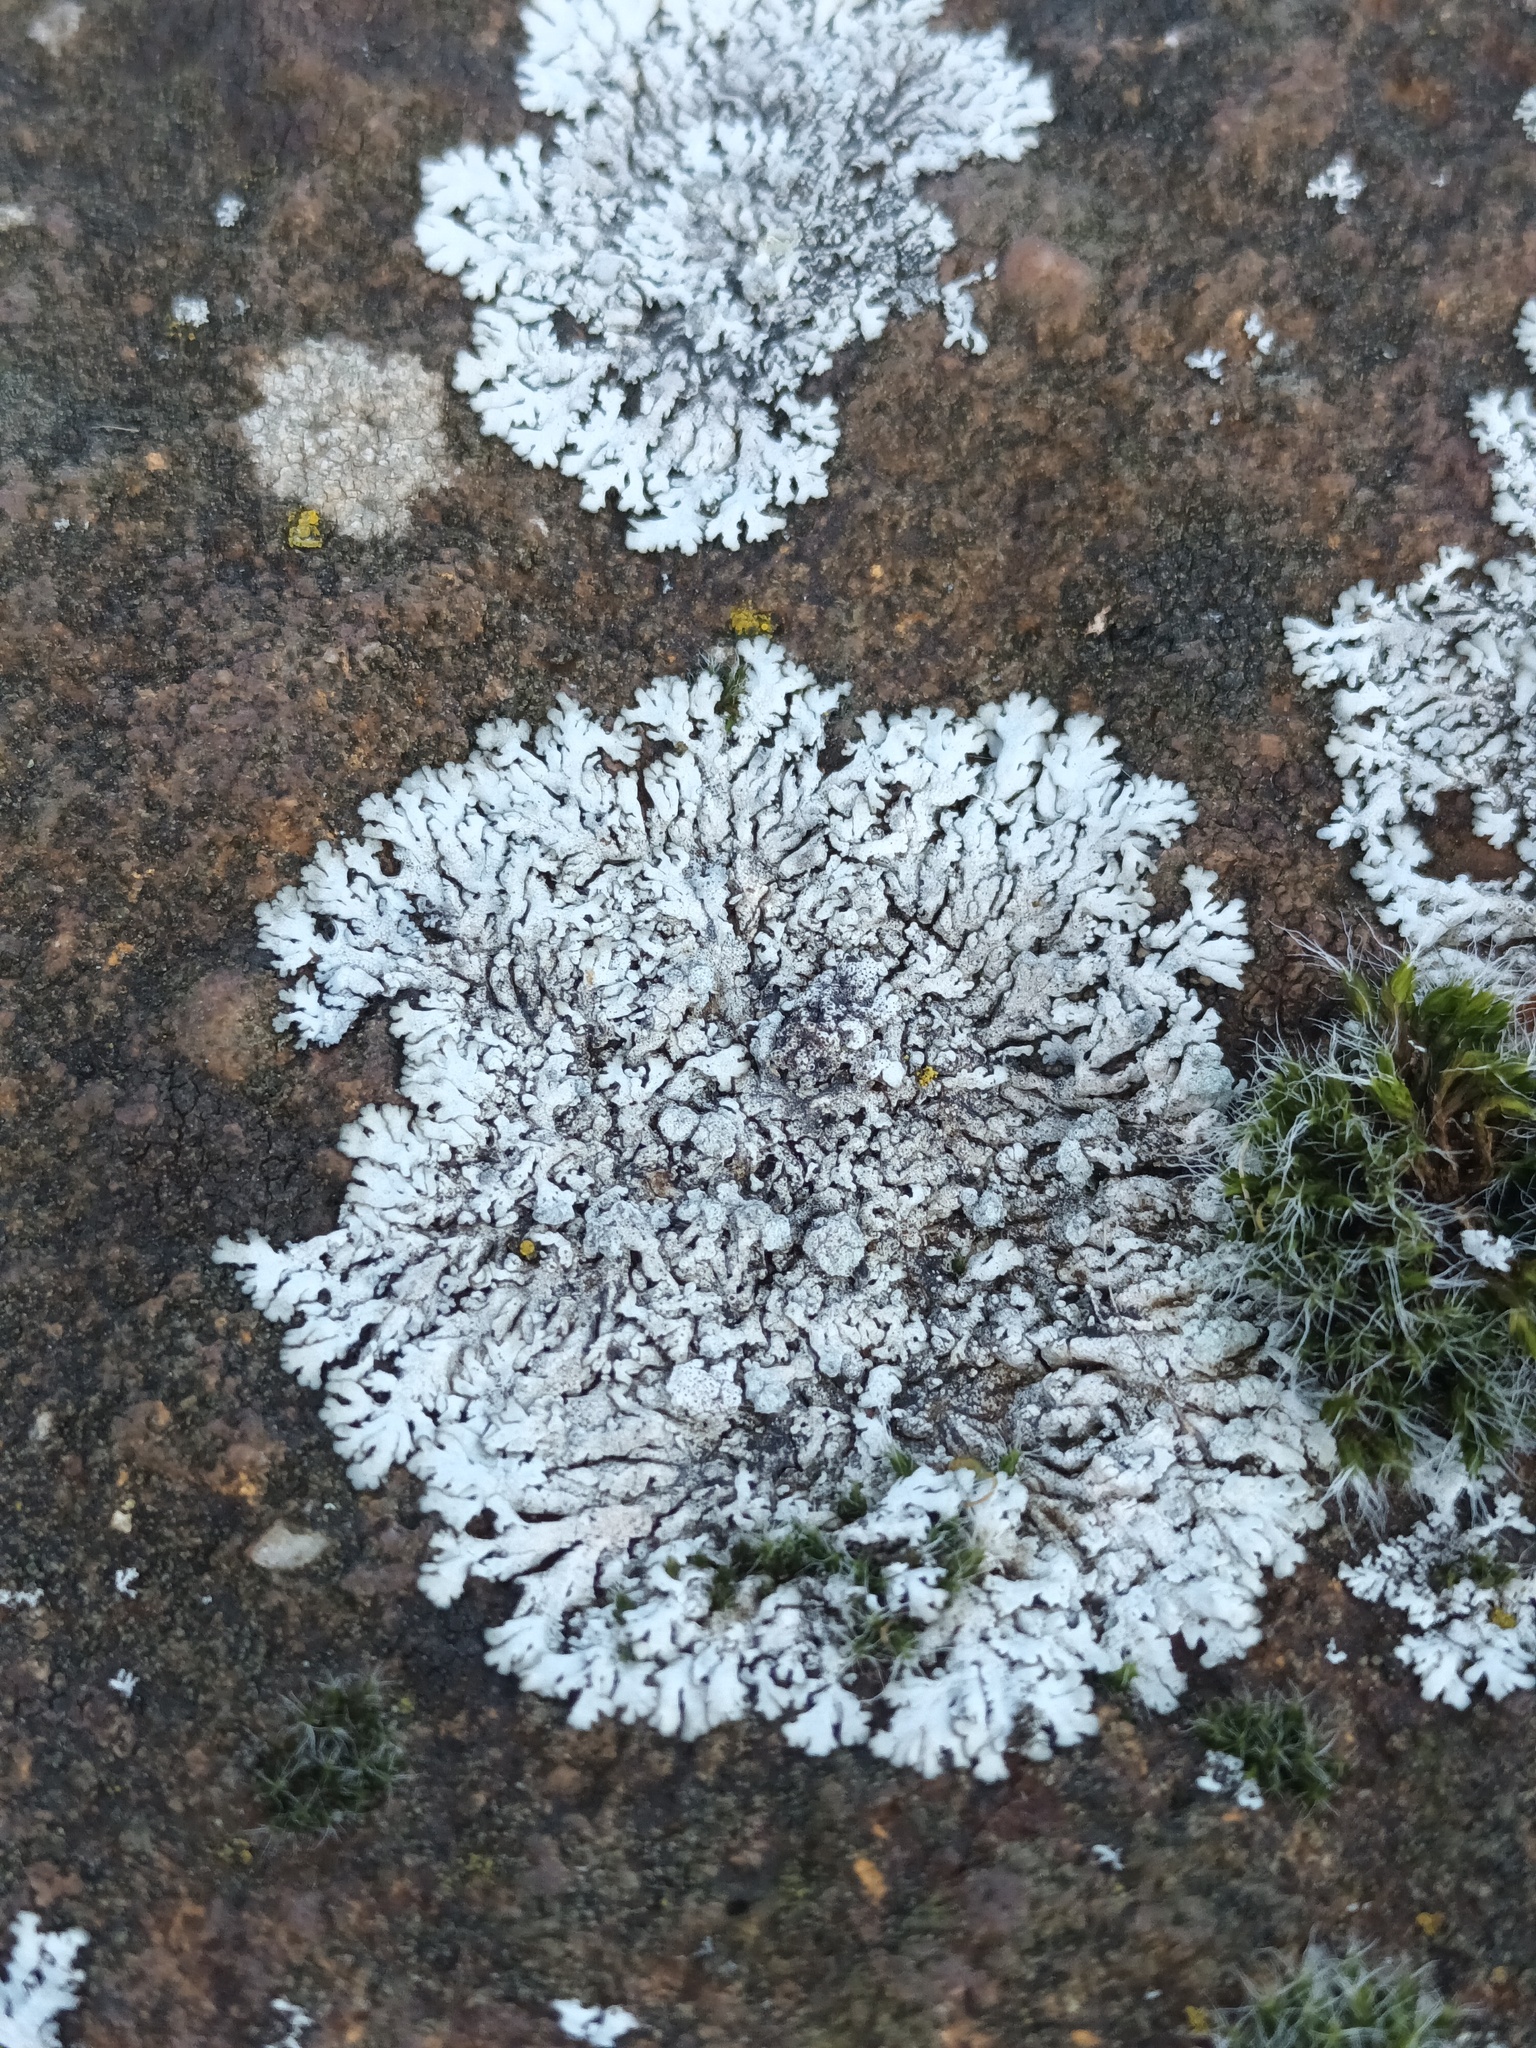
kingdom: Fungi
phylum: Ascomycota
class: Lecanoromycetes
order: Caliciales
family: Physciaceae
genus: Physcia
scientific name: Physcia caesia
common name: Blue-gray rosette lichen
